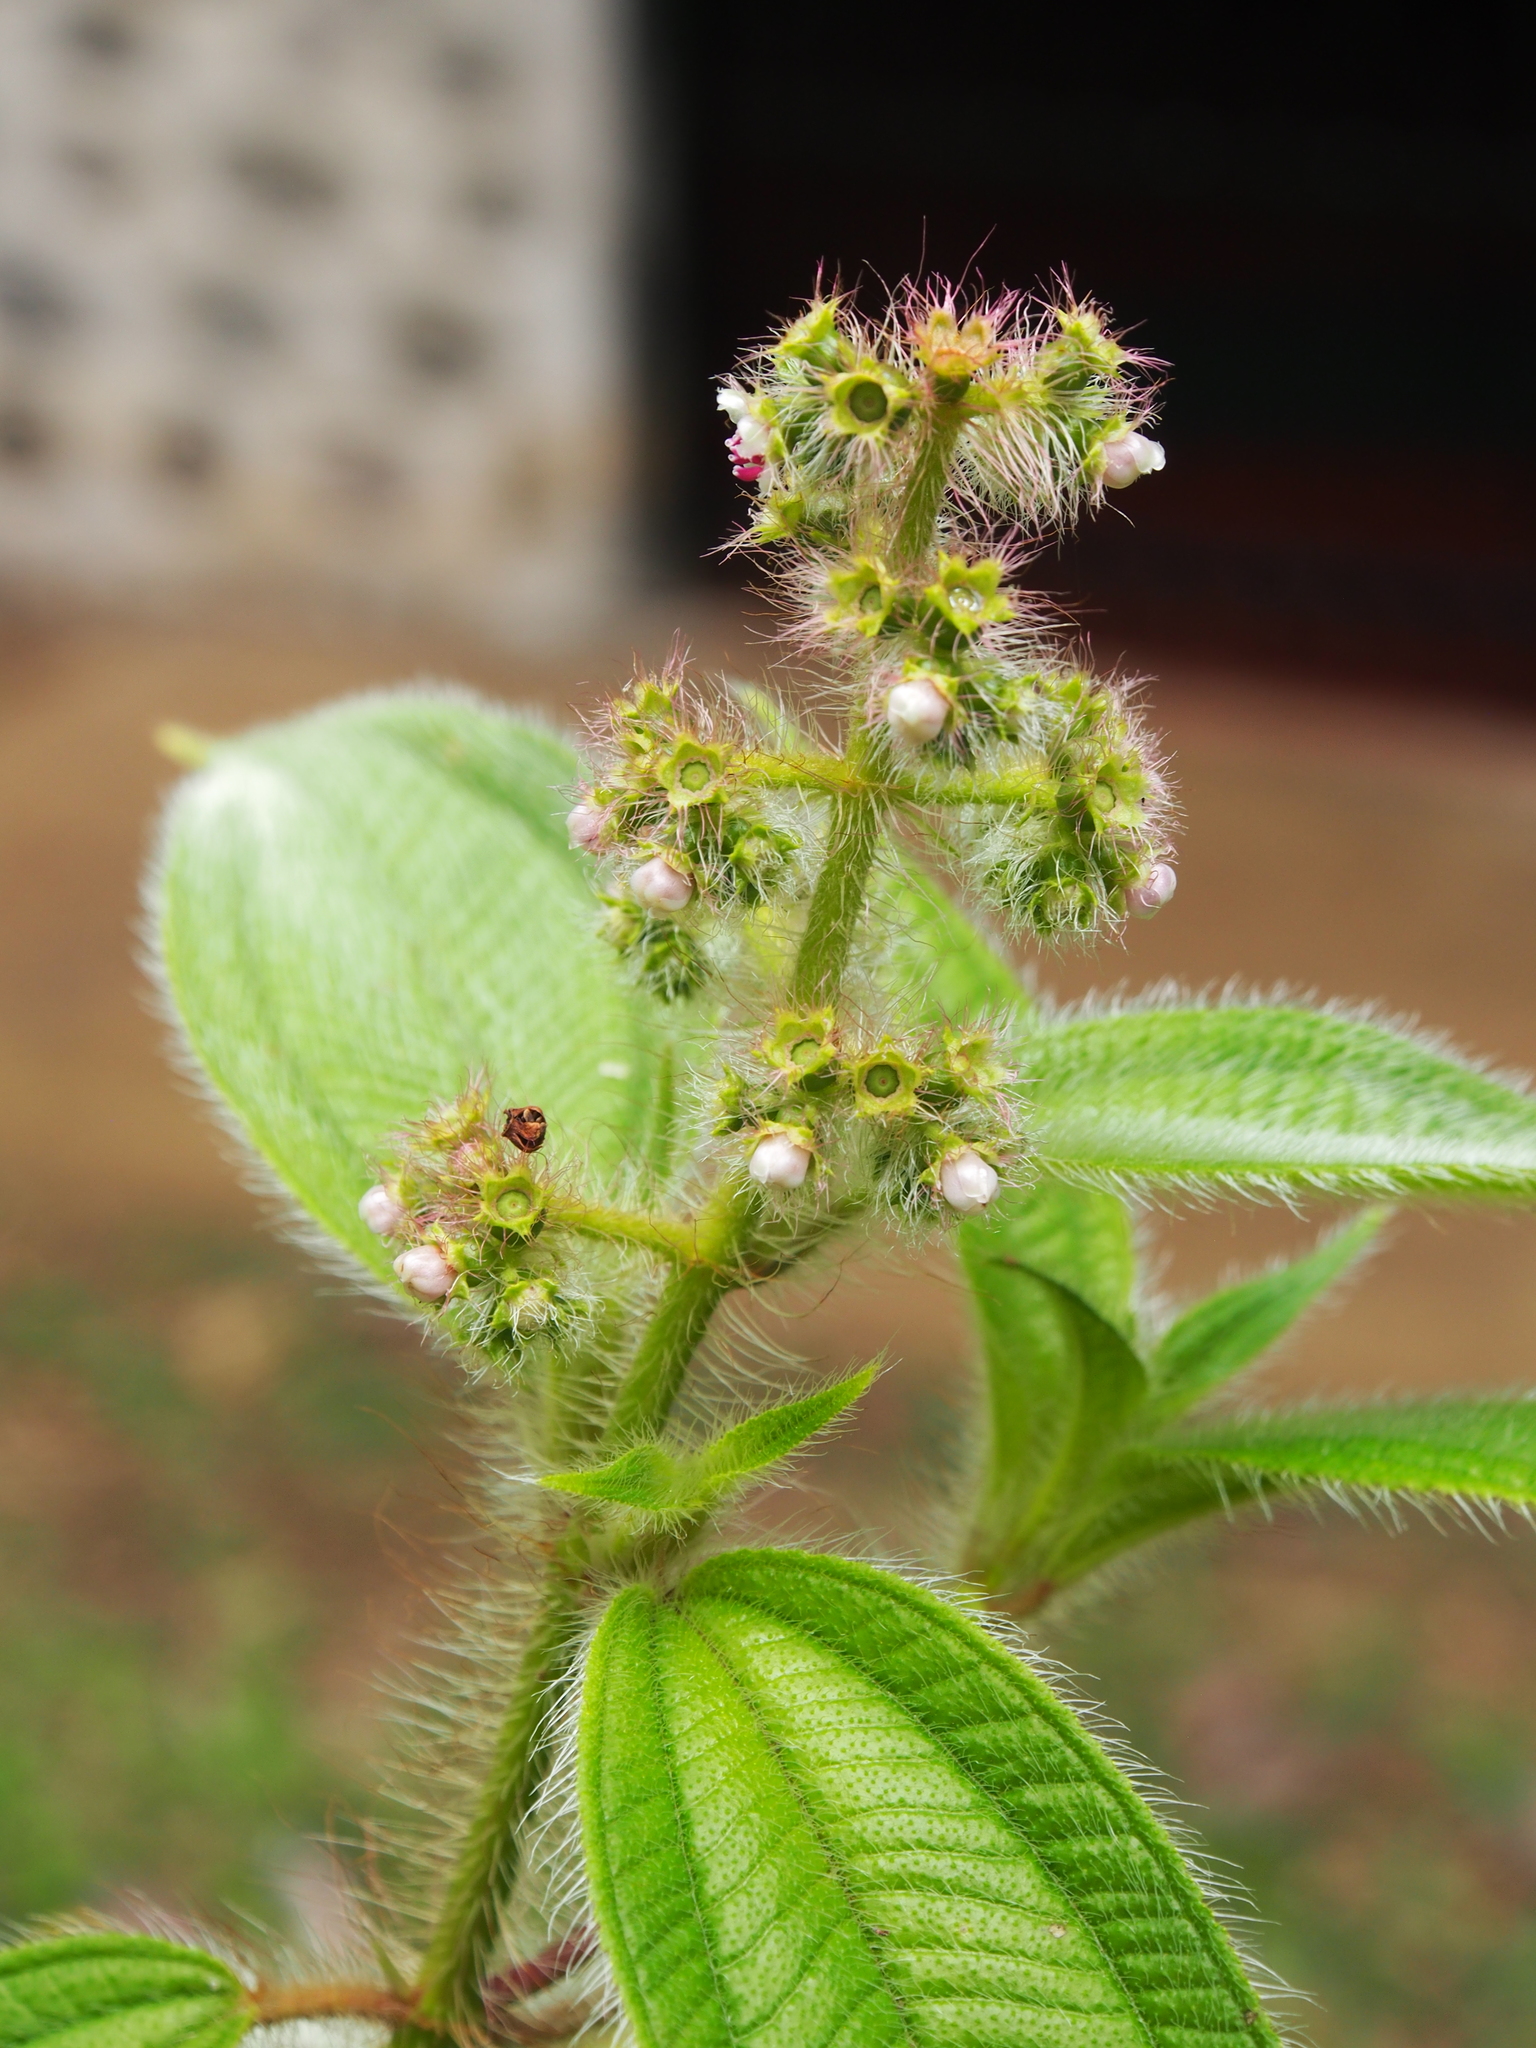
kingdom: Plantae
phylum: Tracheophyta
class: Magnoliopsida
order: Myrtales
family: Melastomataceae
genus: Miconia
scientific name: Miconia lacera
